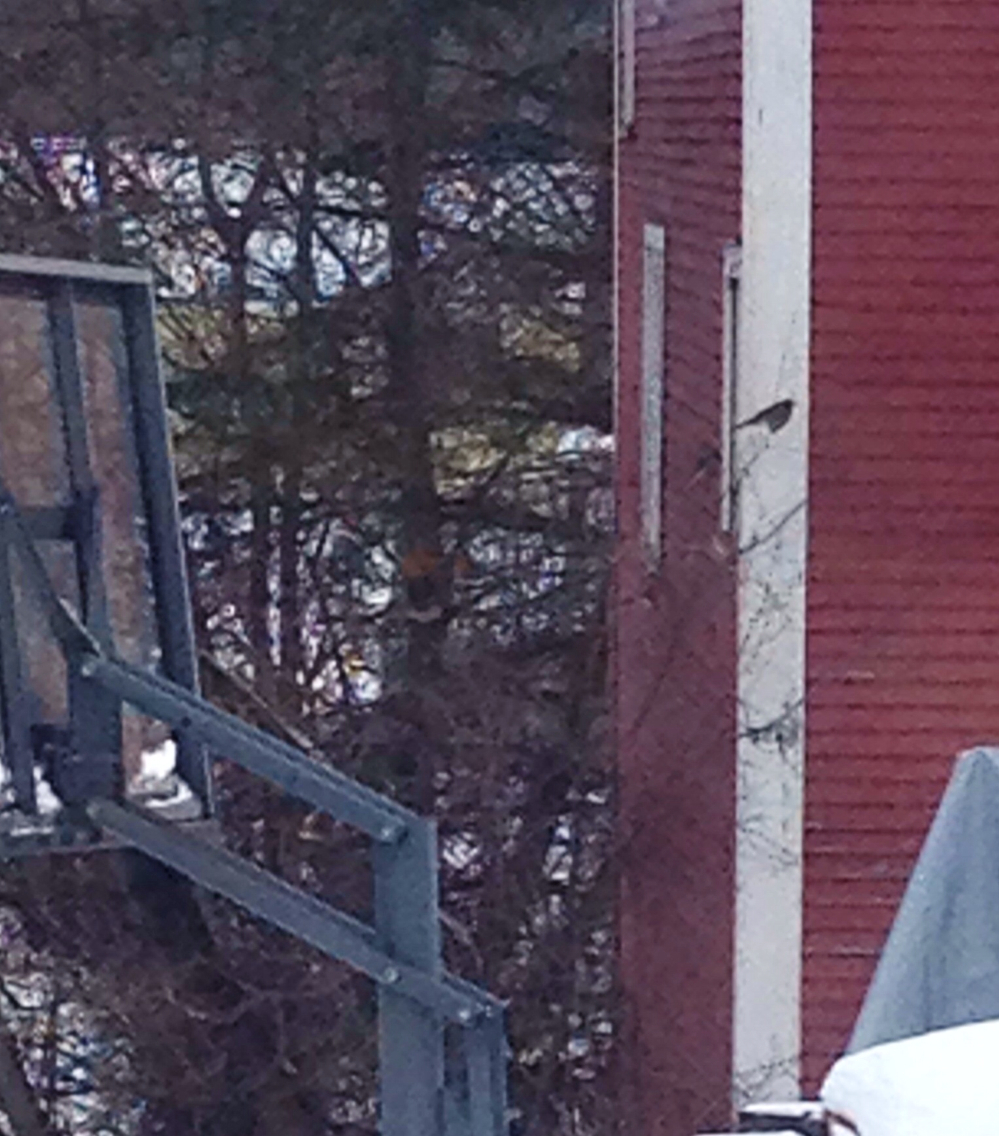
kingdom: Animalia
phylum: Chordata
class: Aves
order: Passeriformes
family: Turdidae
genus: Turdus
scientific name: Turdus migratorius
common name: American robin
